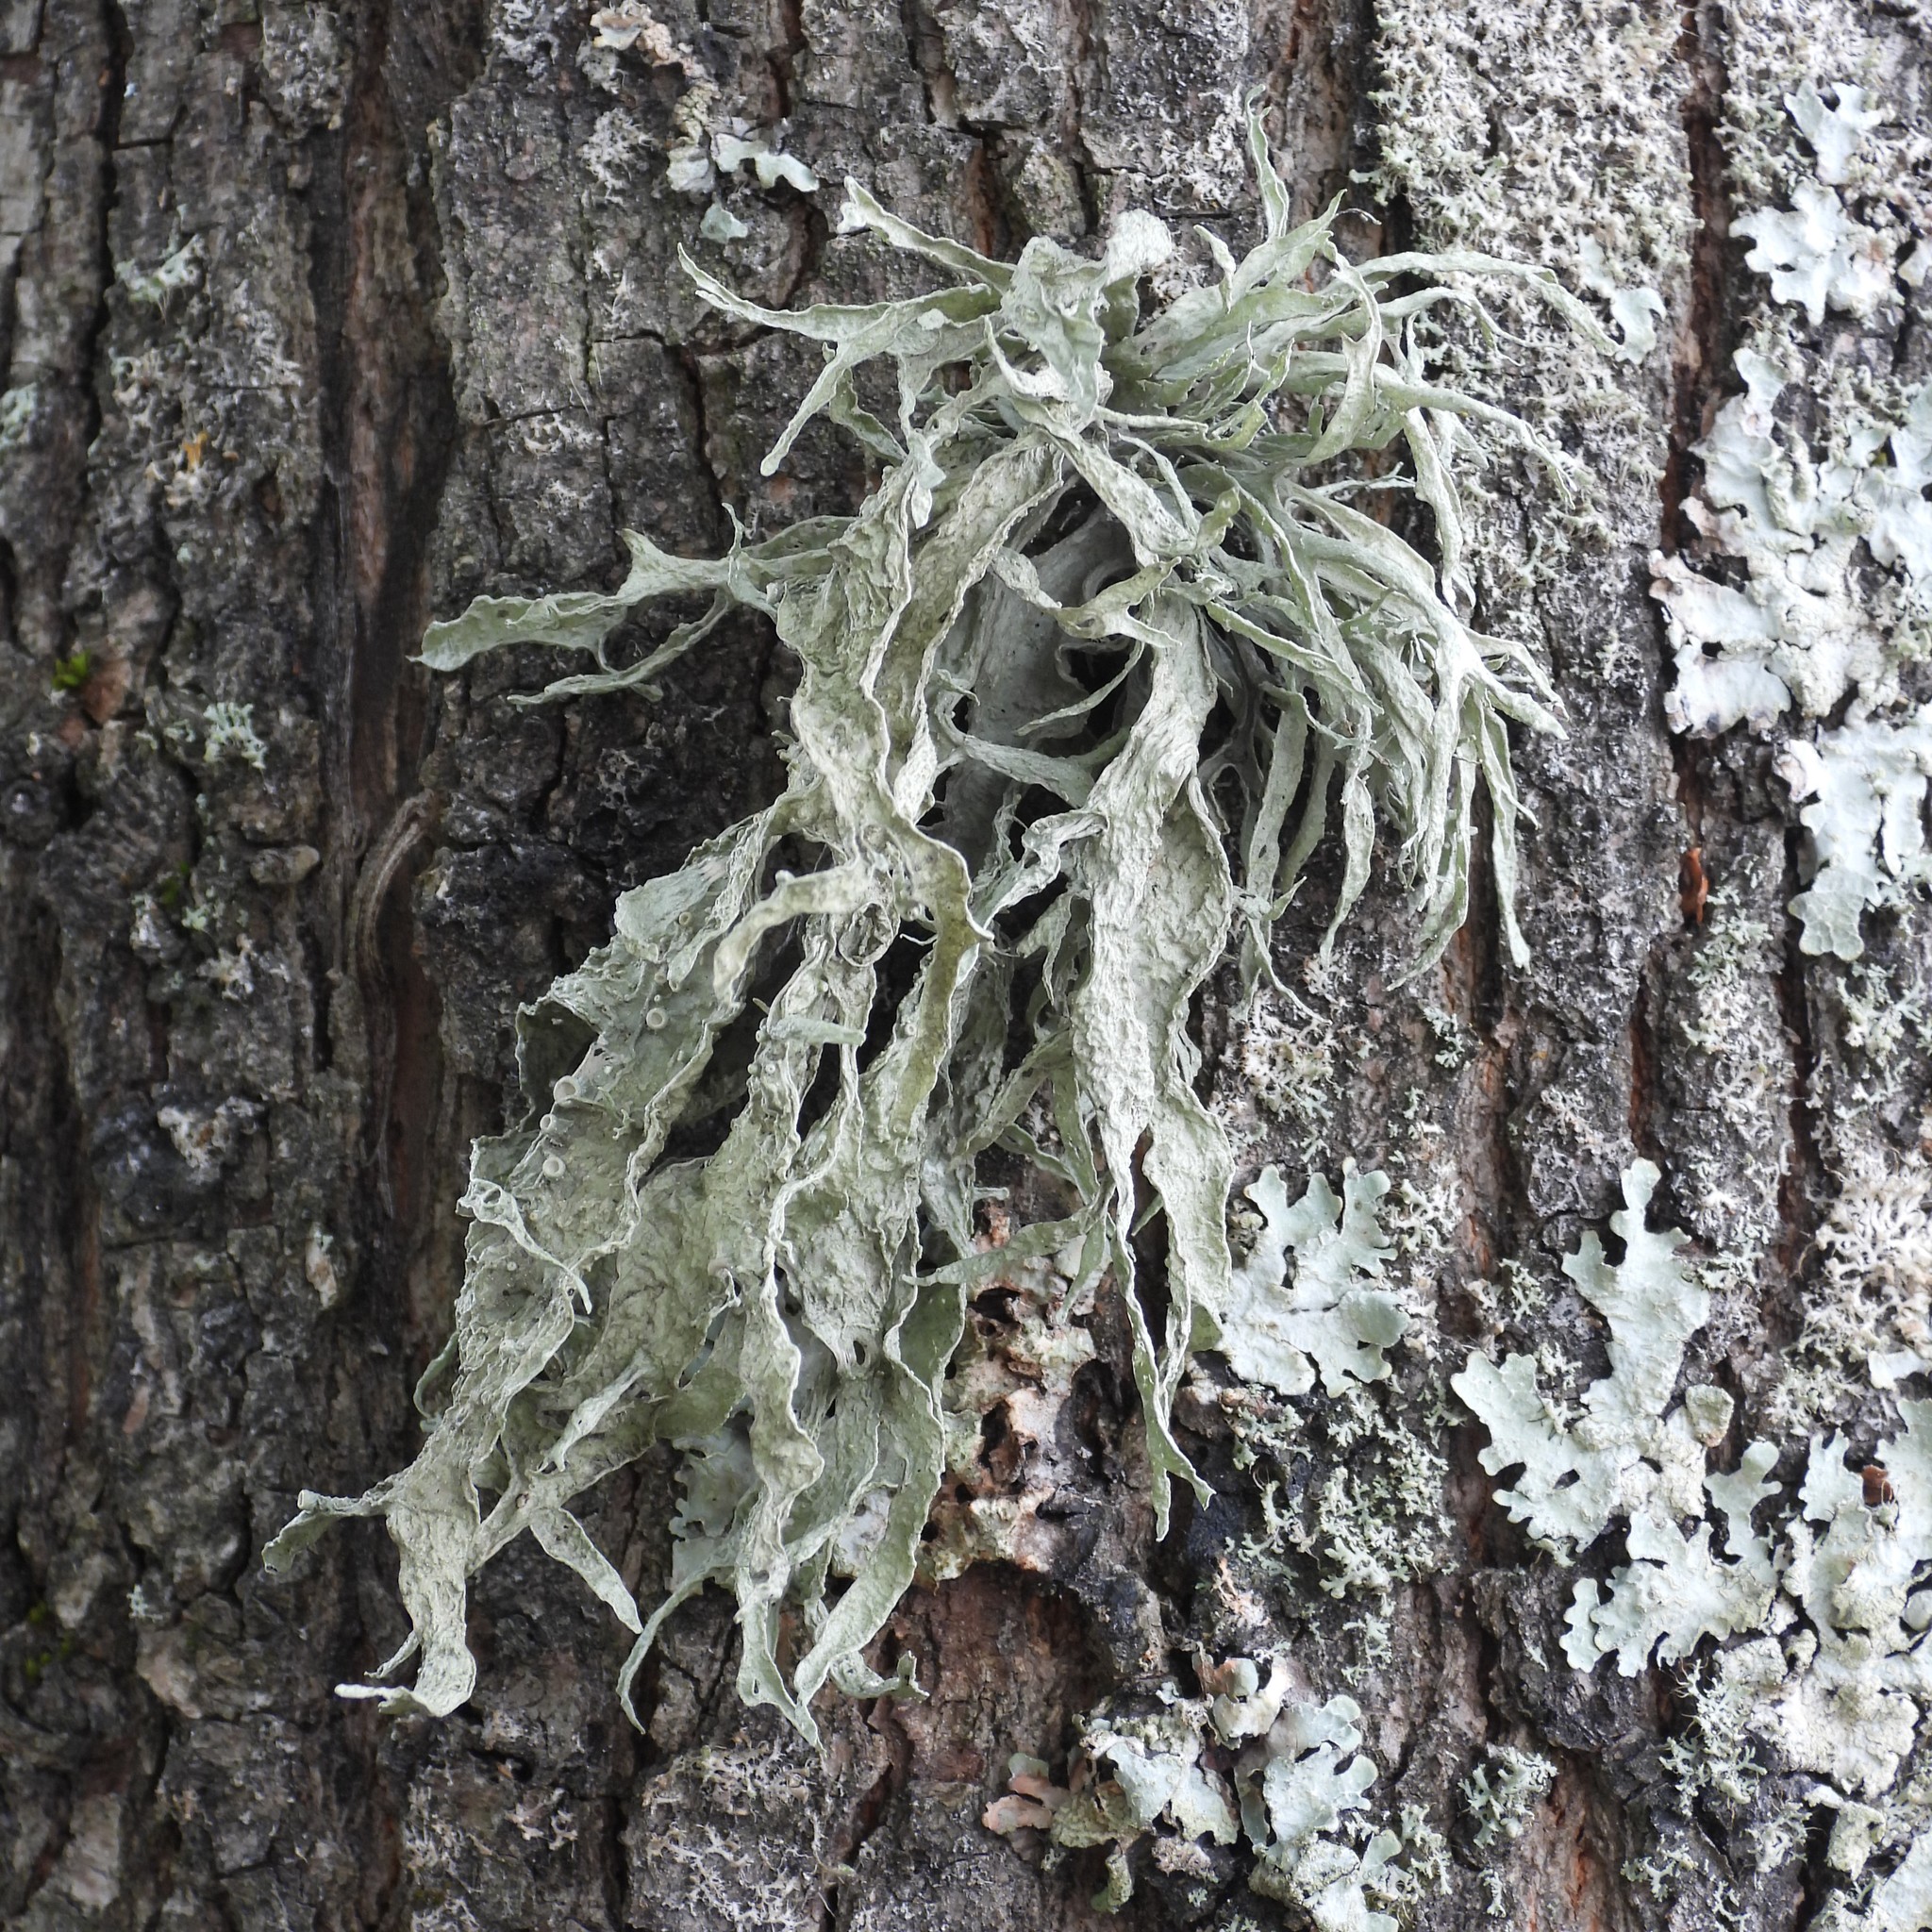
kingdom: Fungi
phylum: Ascomycota
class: Lecanoromycetes
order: Lecanorales
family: Ramalinaceae
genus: Ramalina
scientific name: Ramalina fraxinea
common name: Cartilage lichen
